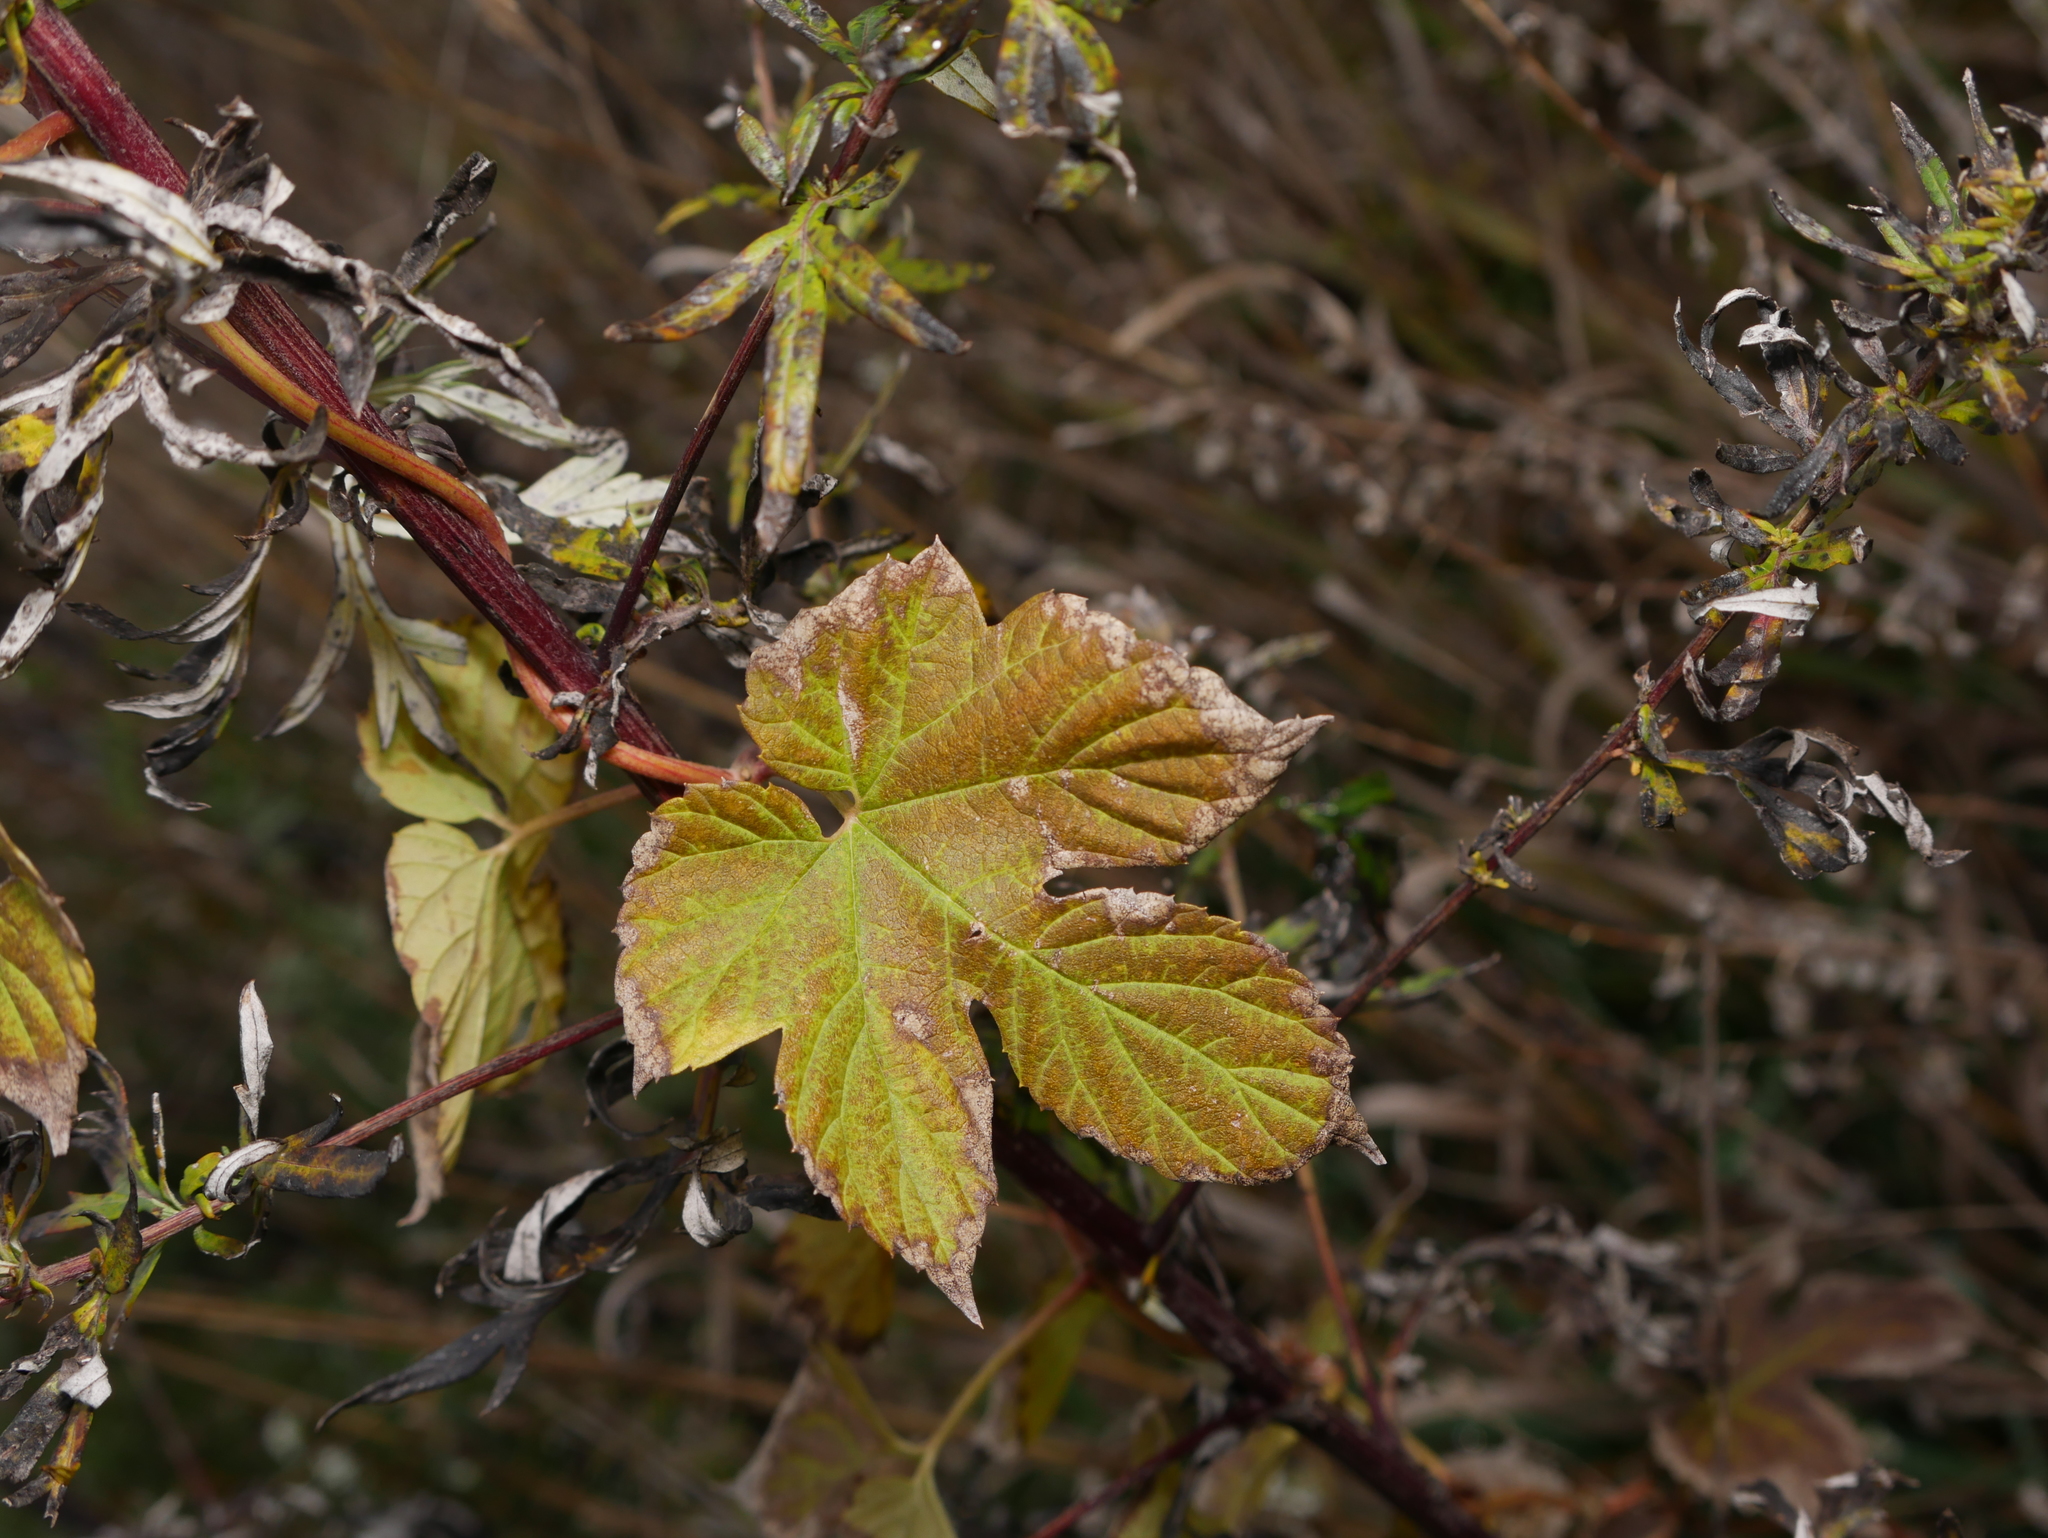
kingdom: Plantae
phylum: Tracheophyta
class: Magnoliopsida
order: Rosales
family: Cannabaceae
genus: Humulus
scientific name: Humulus lupulus
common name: Hop
